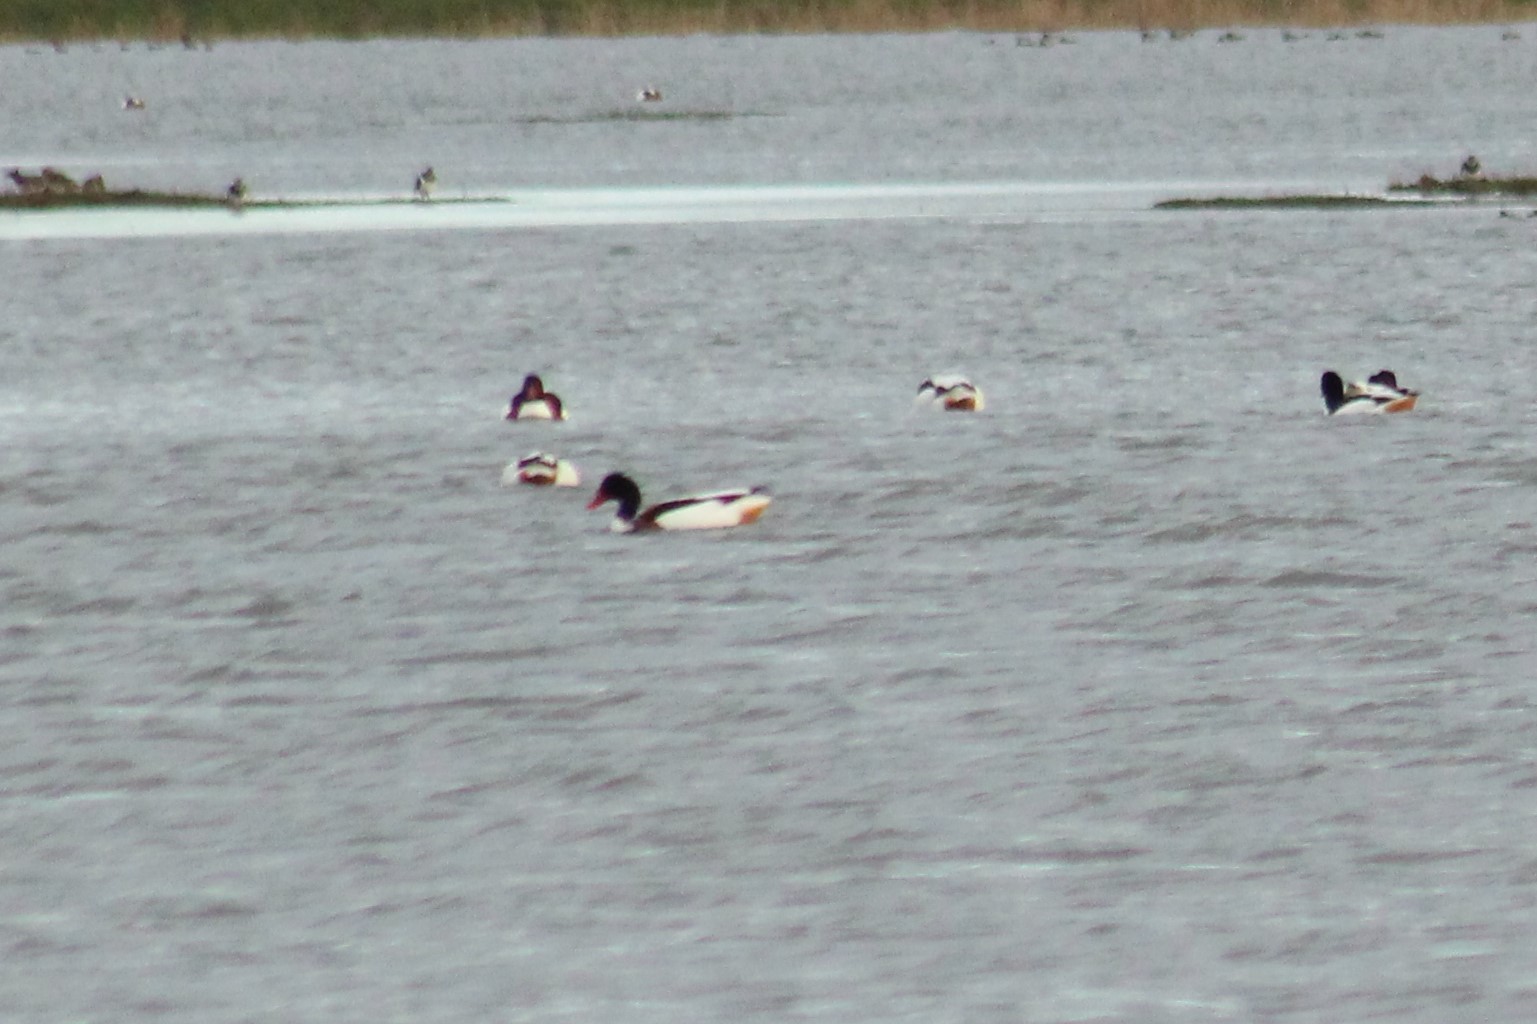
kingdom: Animalia
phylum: Chordata
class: Aves
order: Anseriformes
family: Anatidae
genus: Tadorna
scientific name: Tadorna tadorna
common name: Common shelduck
